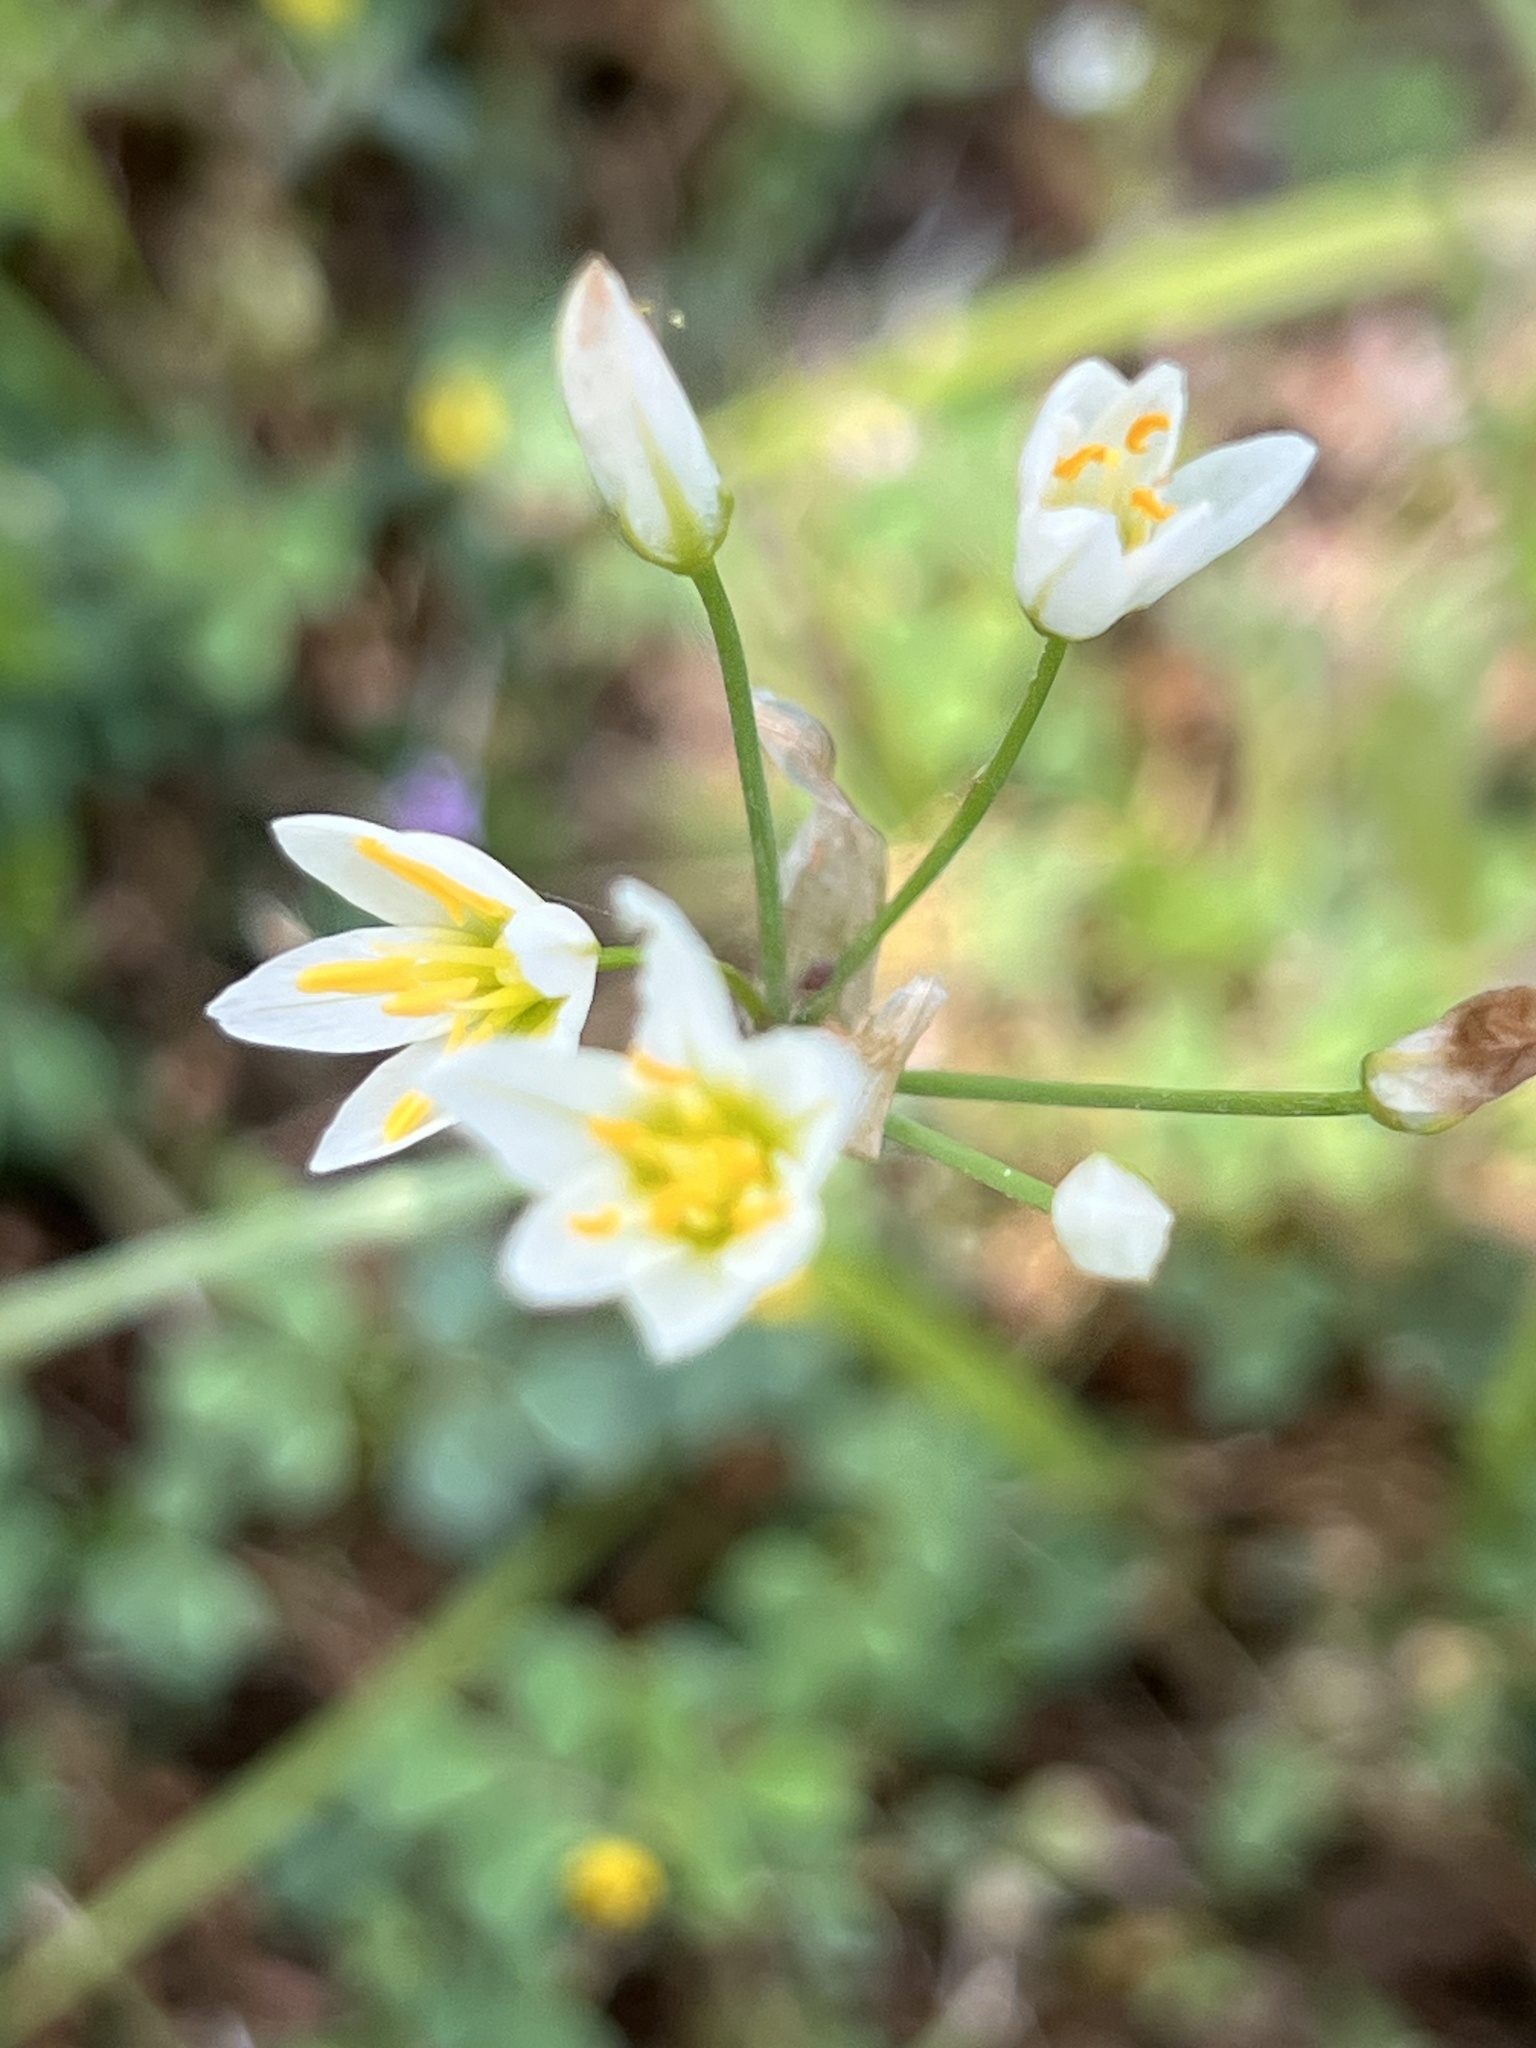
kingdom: Plantae
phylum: Tracheophyta
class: Liliopsida
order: Asparagales
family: Amaryllidaceae
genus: Nothoscordum
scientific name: Nothoscordum bivalve
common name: Crow-poison
